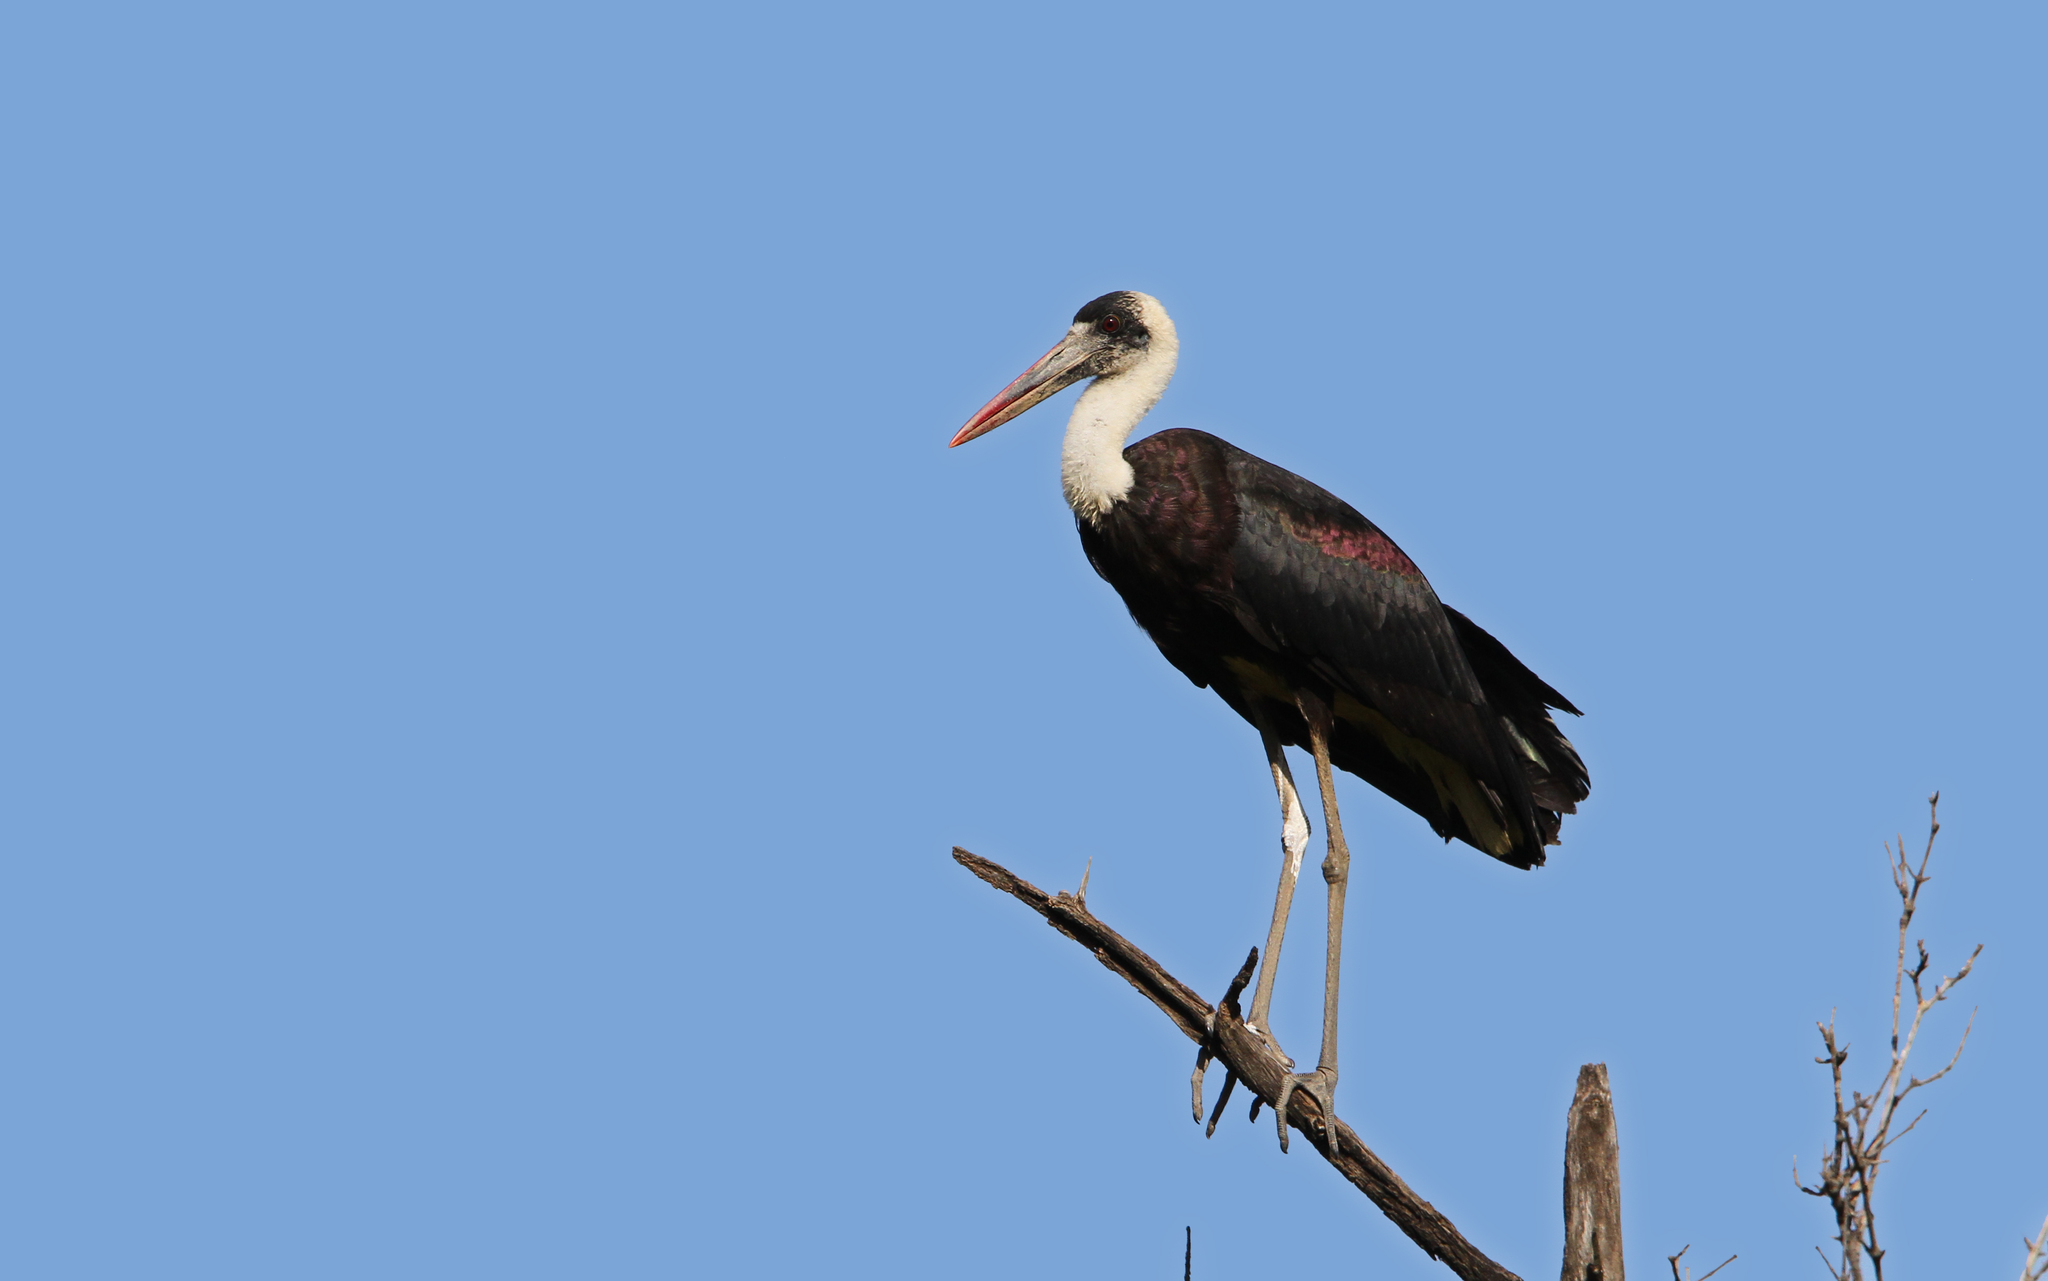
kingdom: Animalia
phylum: Chordata
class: Aves
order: Ciconiiformes
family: Ciconiidae
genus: Ciconia
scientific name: Ciconia microscelis
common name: African woollyneck
